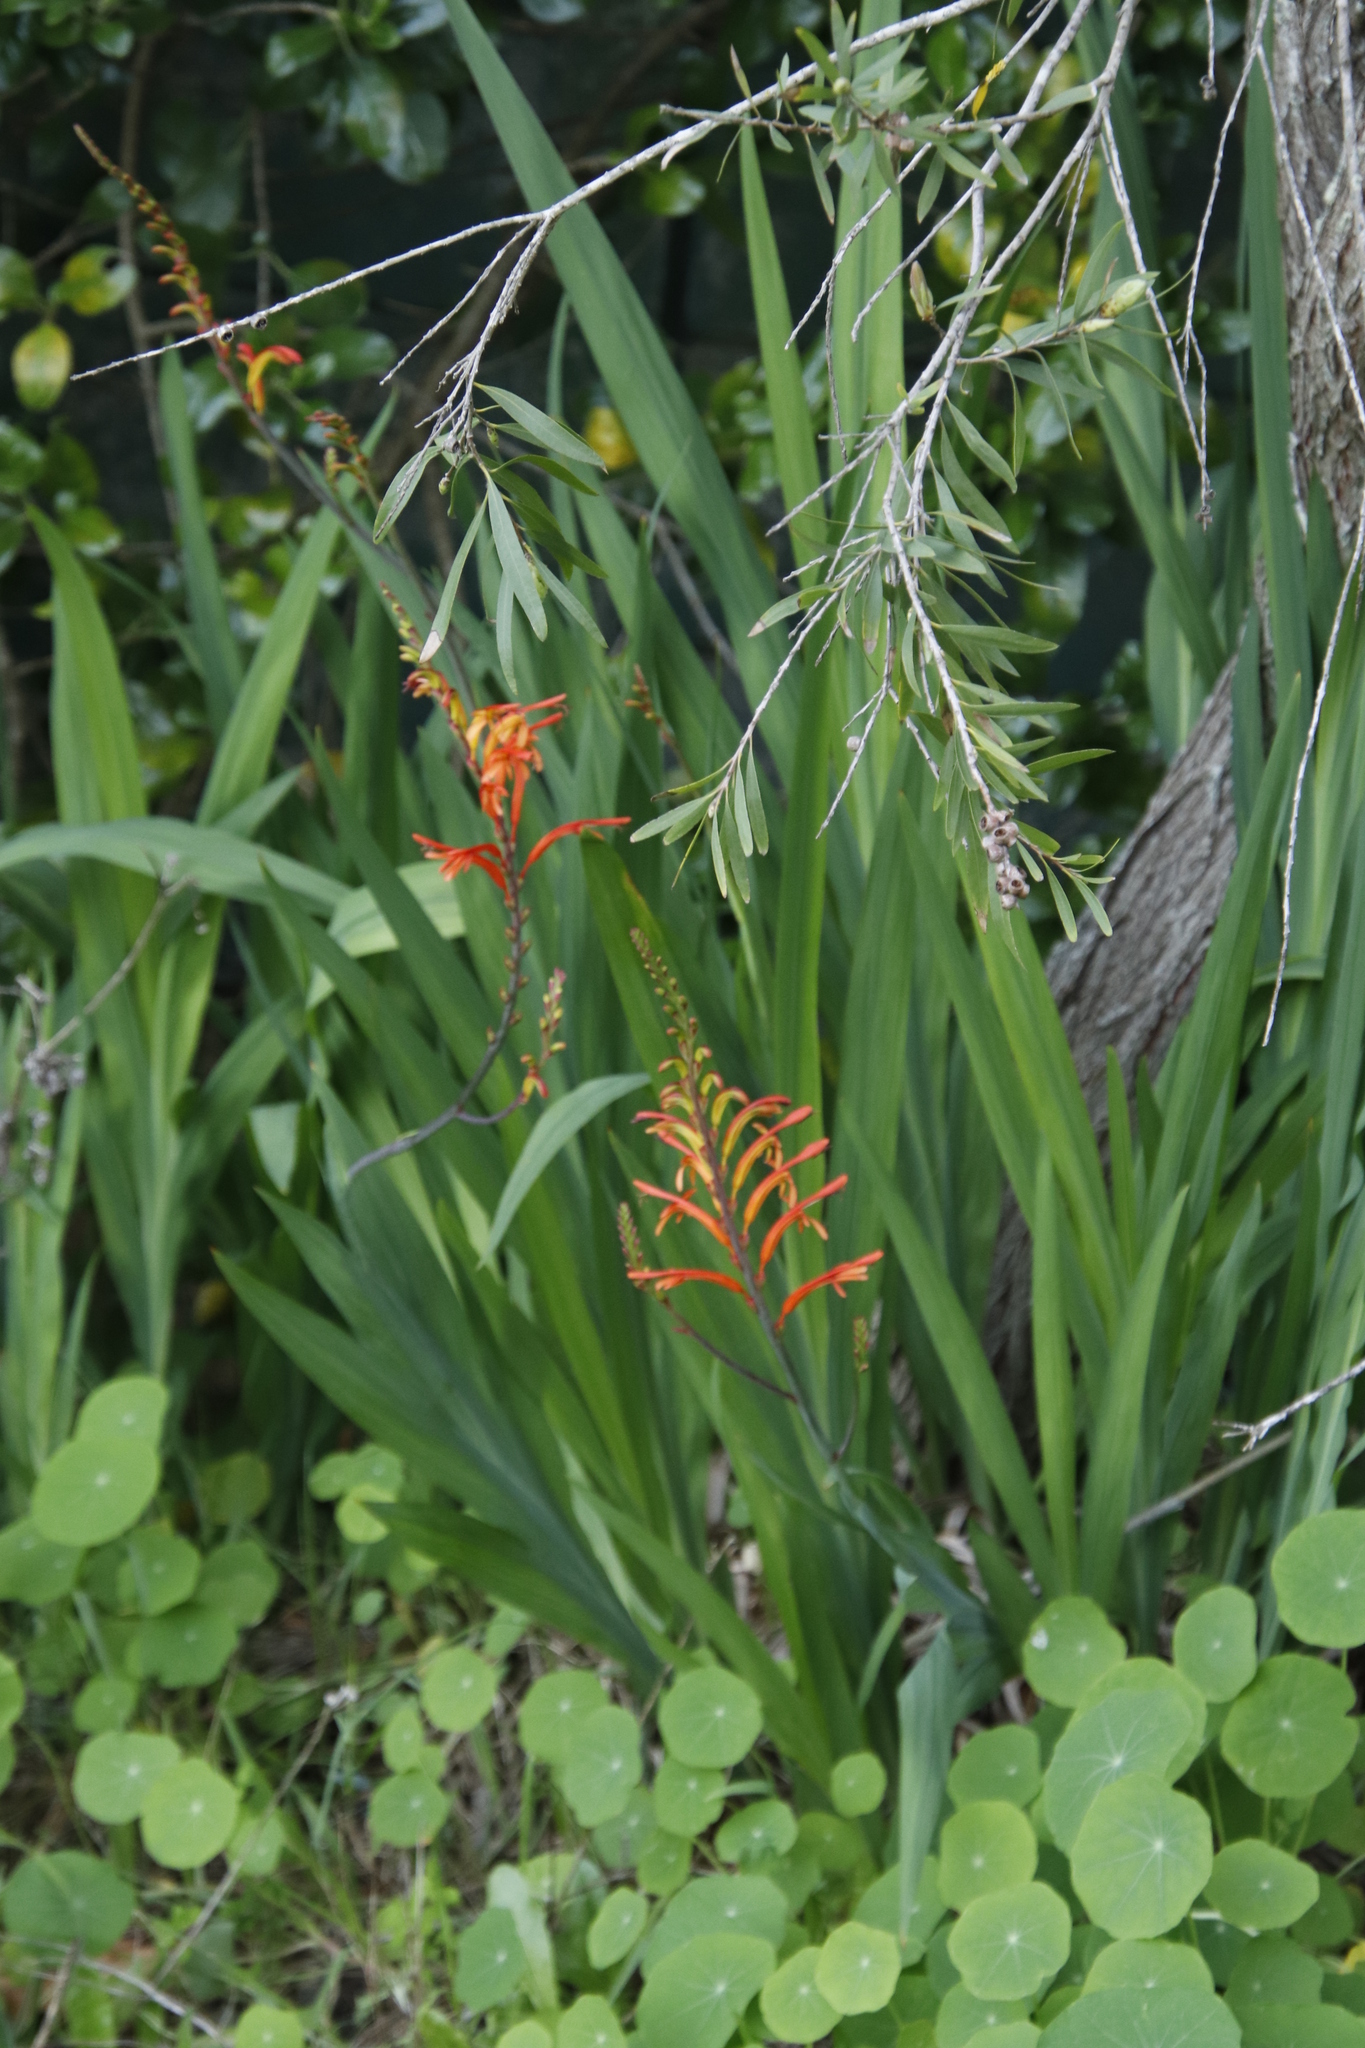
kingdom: Plantae
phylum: Tracheophyta
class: Liliopsida
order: Asparagales
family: Iridaceae
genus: Chasmanthe
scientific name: Chasmanthe floribunda
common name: African cornflag
